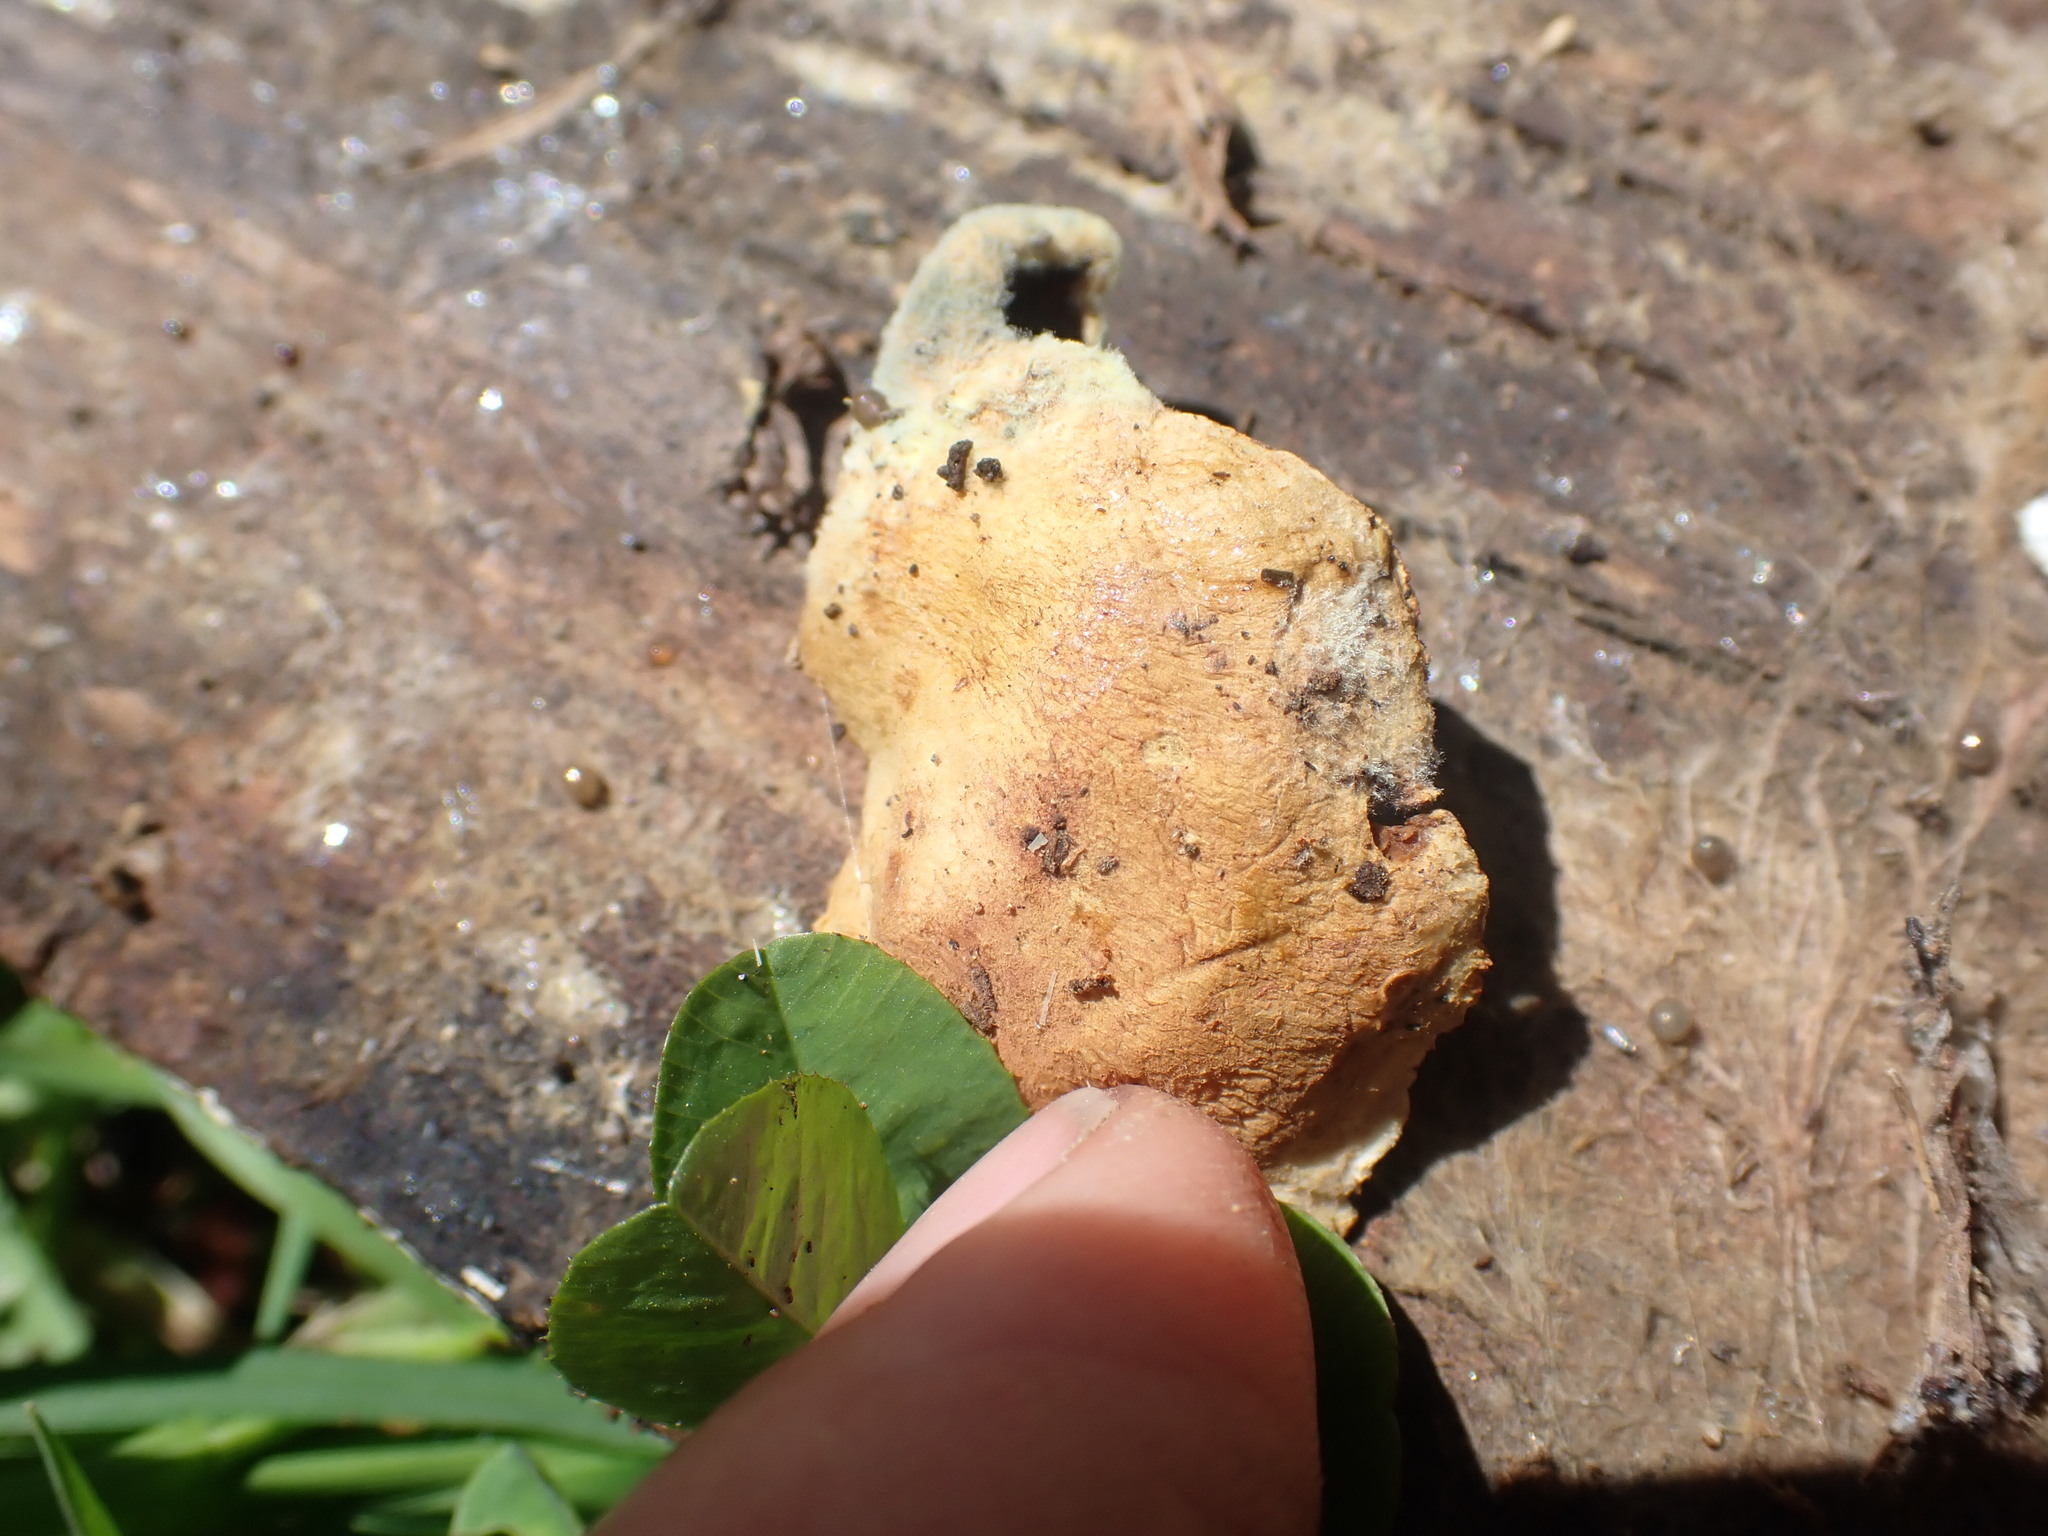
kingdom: Fungi
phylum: Basidiomycota
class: Agaricomycetes
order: Boletales
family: Tapinellaceae
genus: Tapinella
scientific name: Tapinella panuoides
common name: Oyster rollrim
